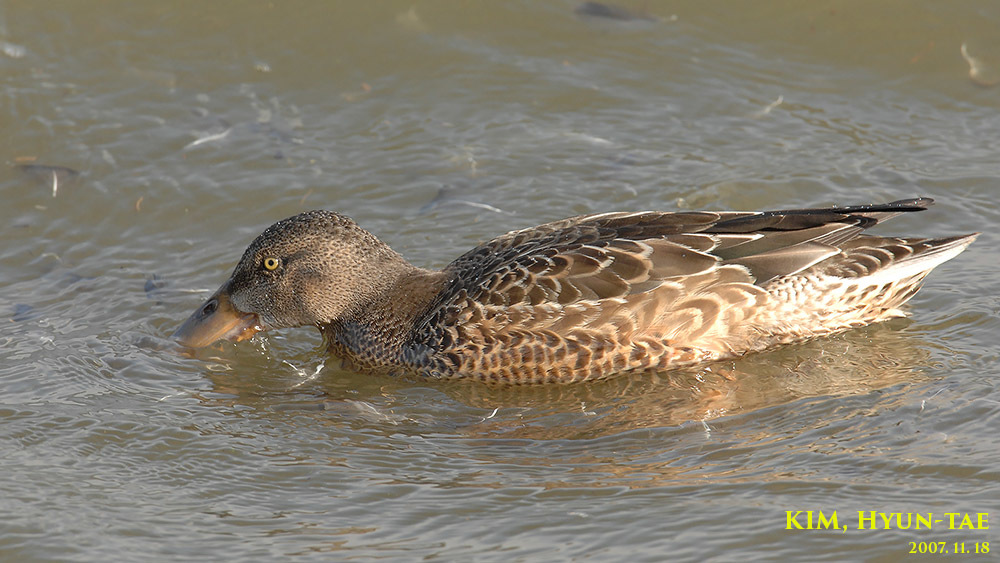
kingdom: Animalia
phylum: Chordata
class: Aves
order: Anseriformes
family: Anatidae
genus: Spatula
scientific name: Spatula clypeata
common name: Northern shoveler
